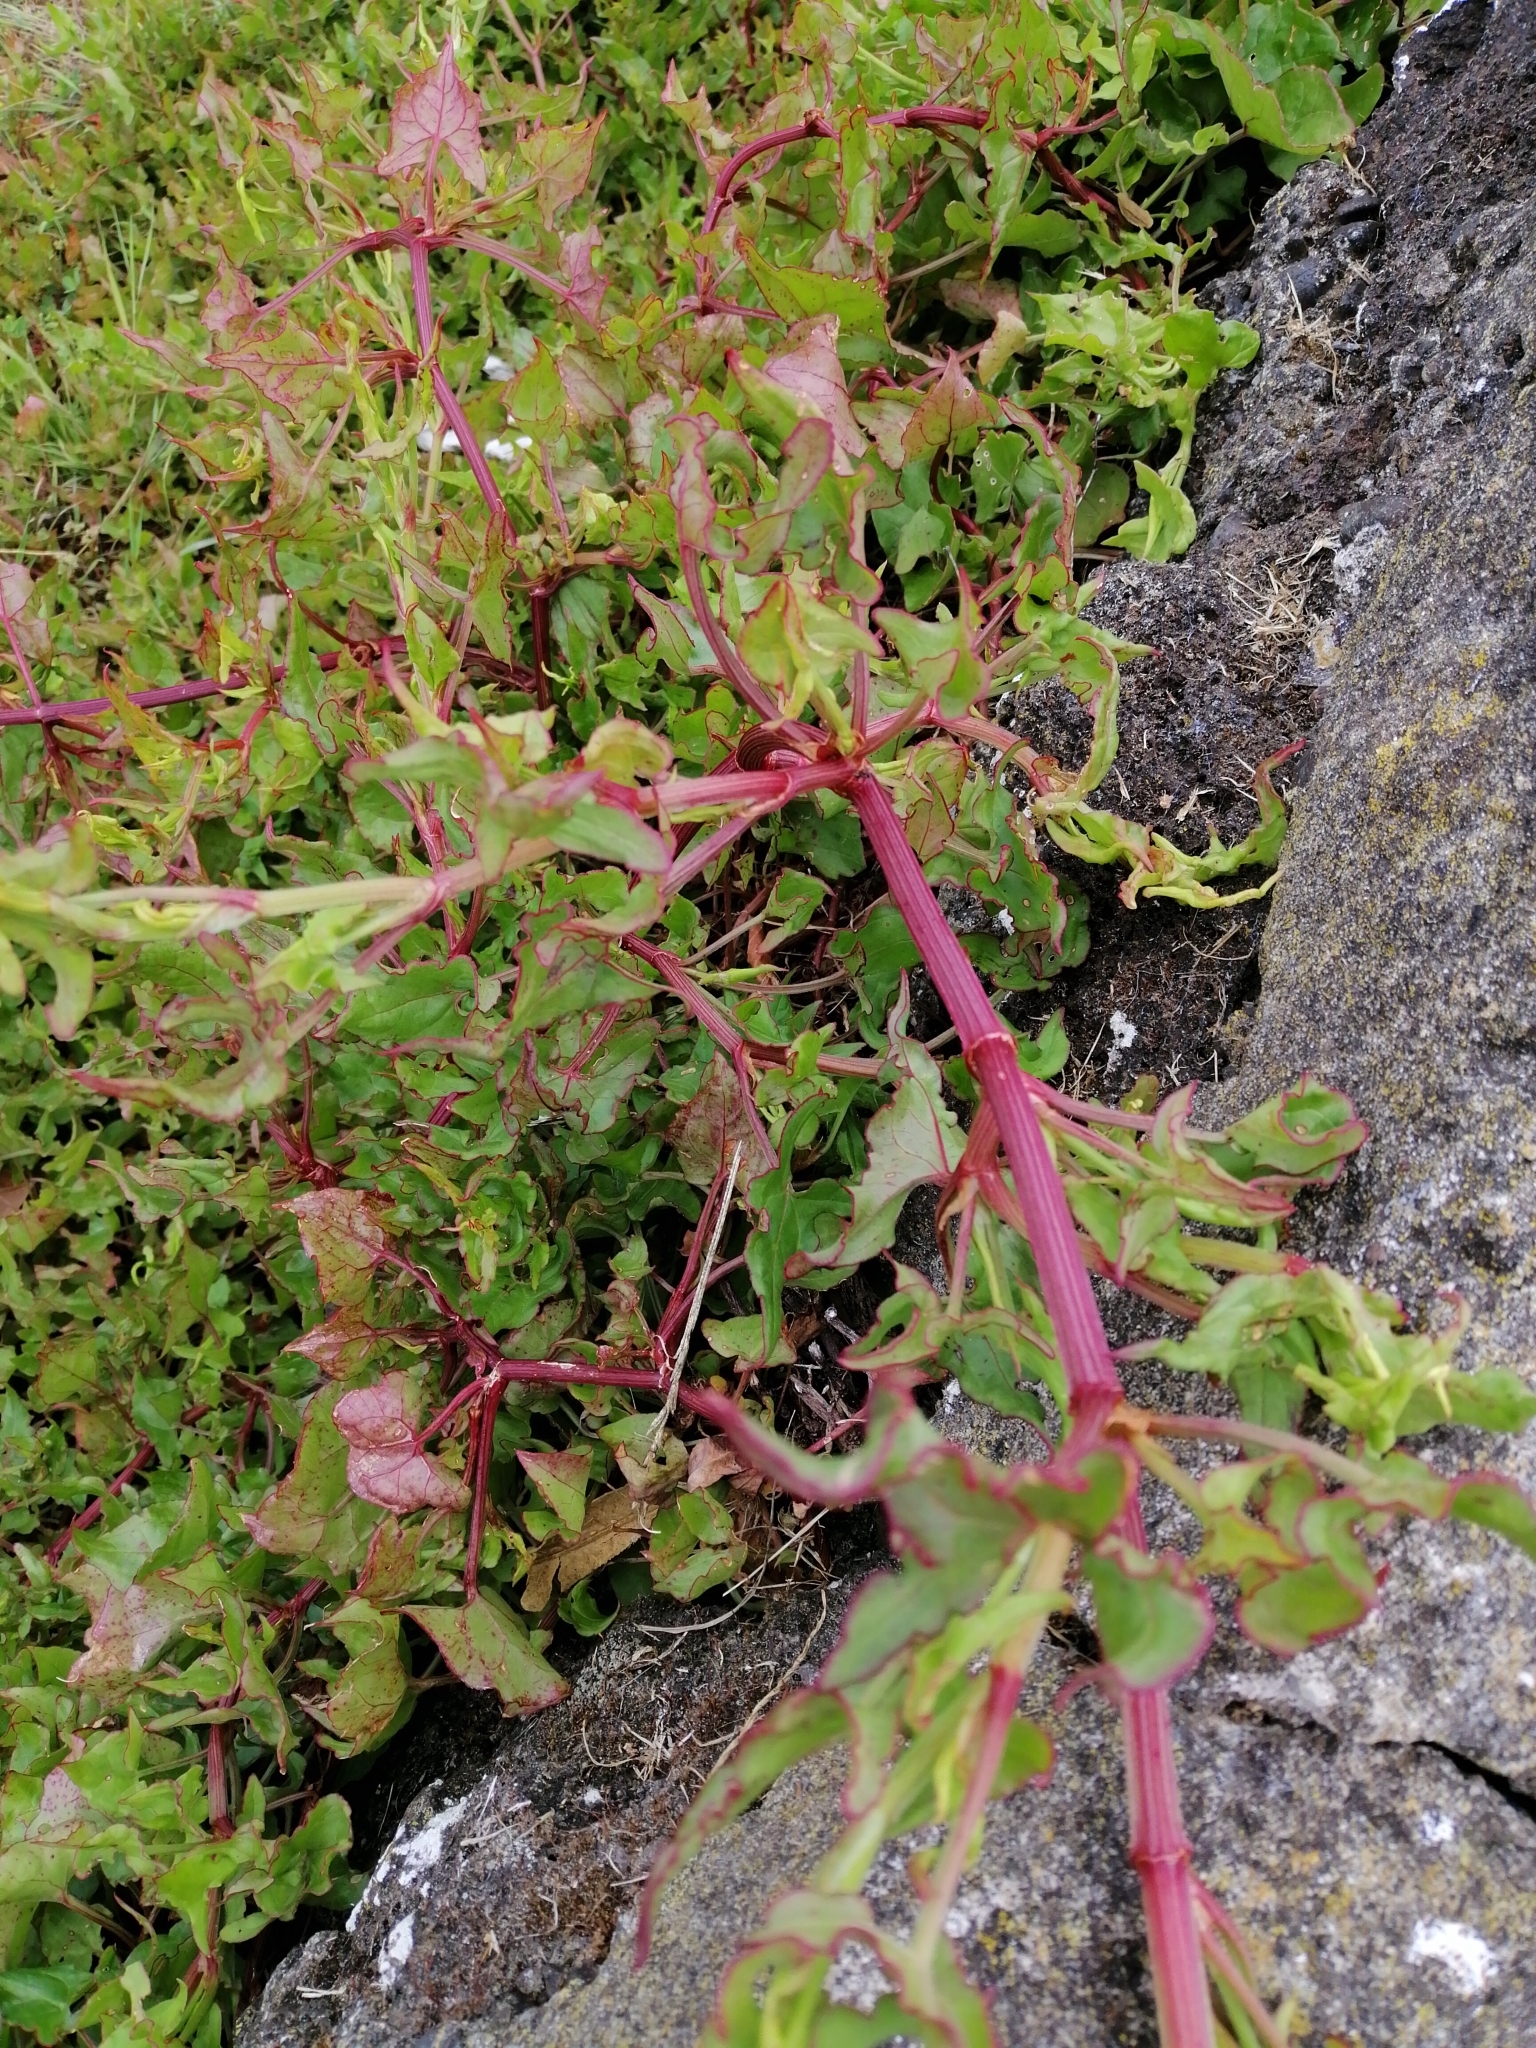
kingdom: Plantae
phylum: Tracheophyta
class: Magnoliopsida
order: Caryophyllales
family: Polygonaceae
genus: Rumex
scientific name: Rumex sagittatus
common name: Climbing dock
